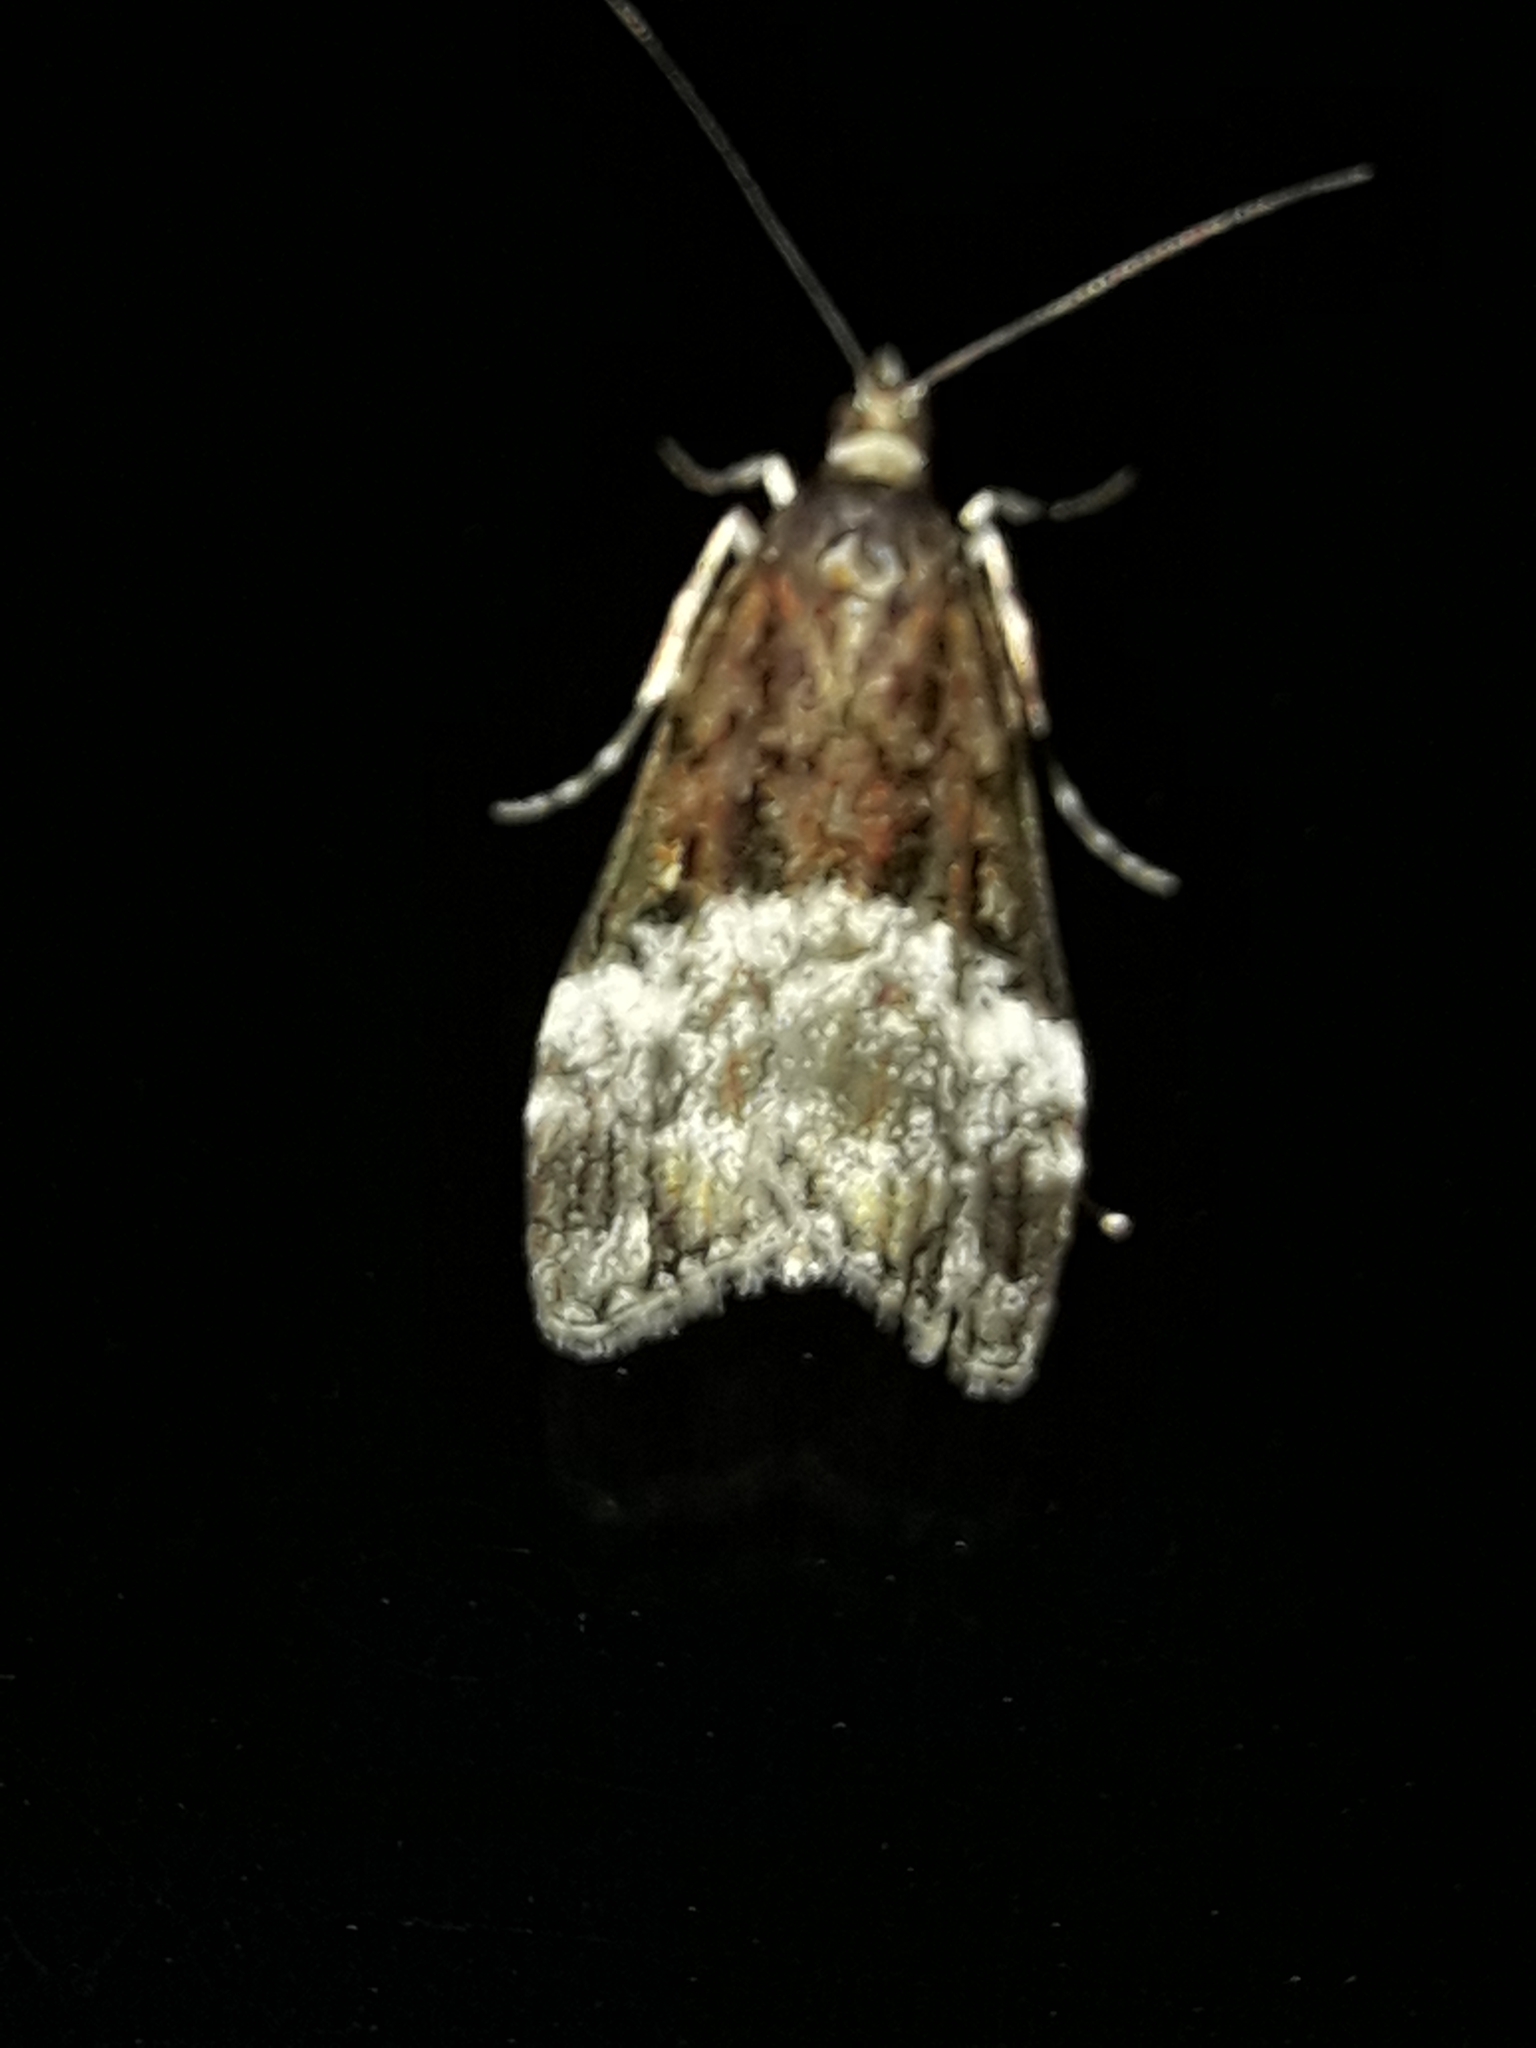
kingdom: Animalia
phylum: Arthropoda
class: Insecta
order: Lepidoptera
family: Crambidae
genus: Scoparia
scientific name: Scoparia minusculalis
